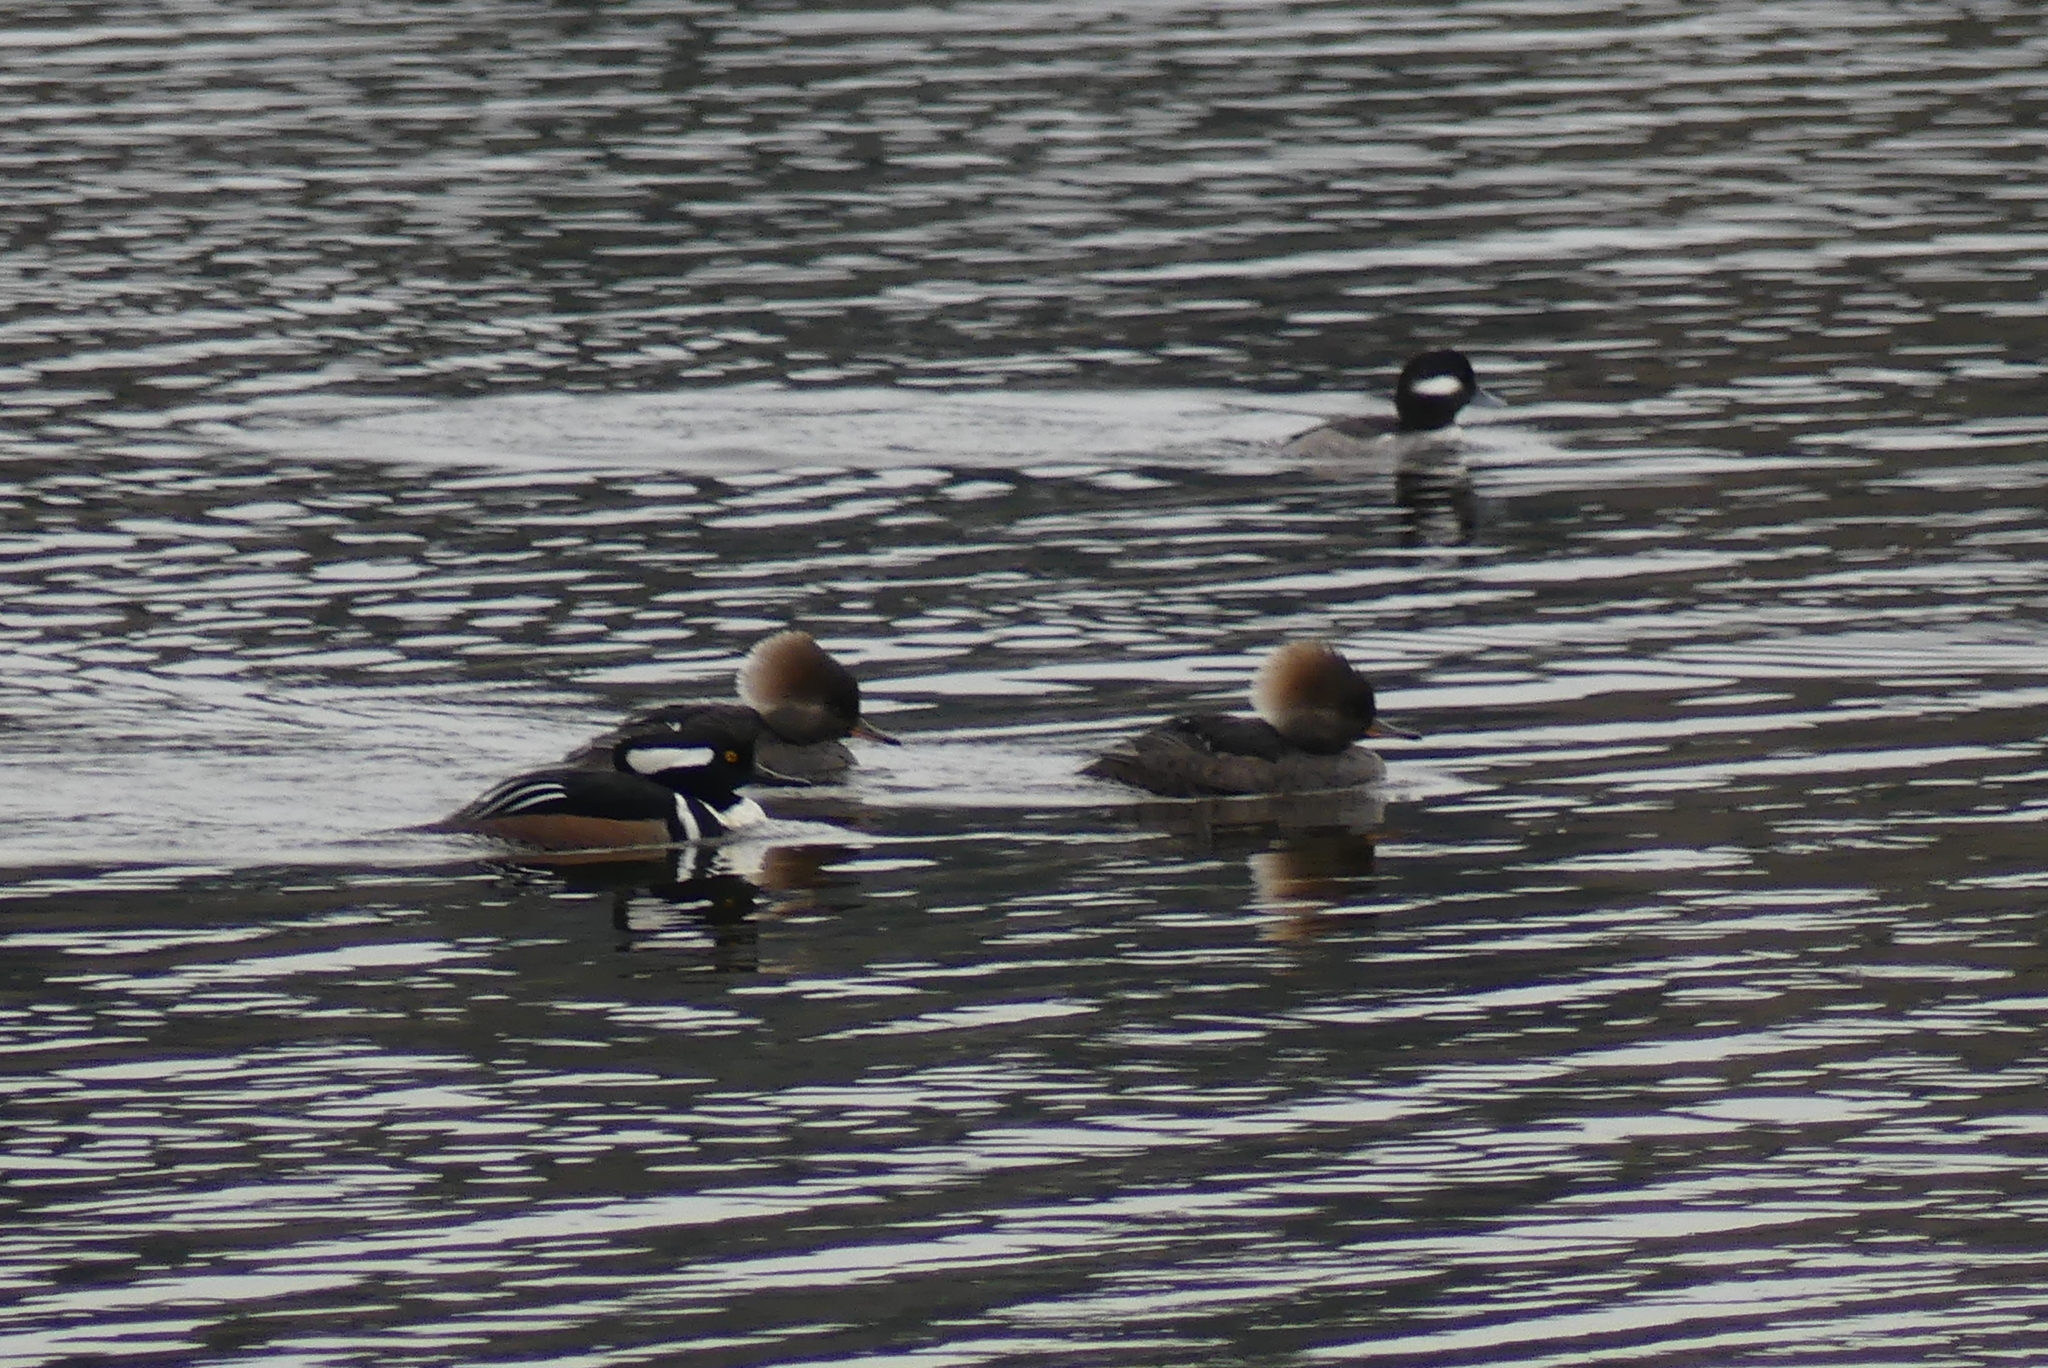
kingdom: Animalia
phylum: Chordata
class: Aves
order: Anseriformes
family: Anatidae
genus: Lophodytes
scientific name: Lophodytes cucullatus
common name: Hooded merganser
